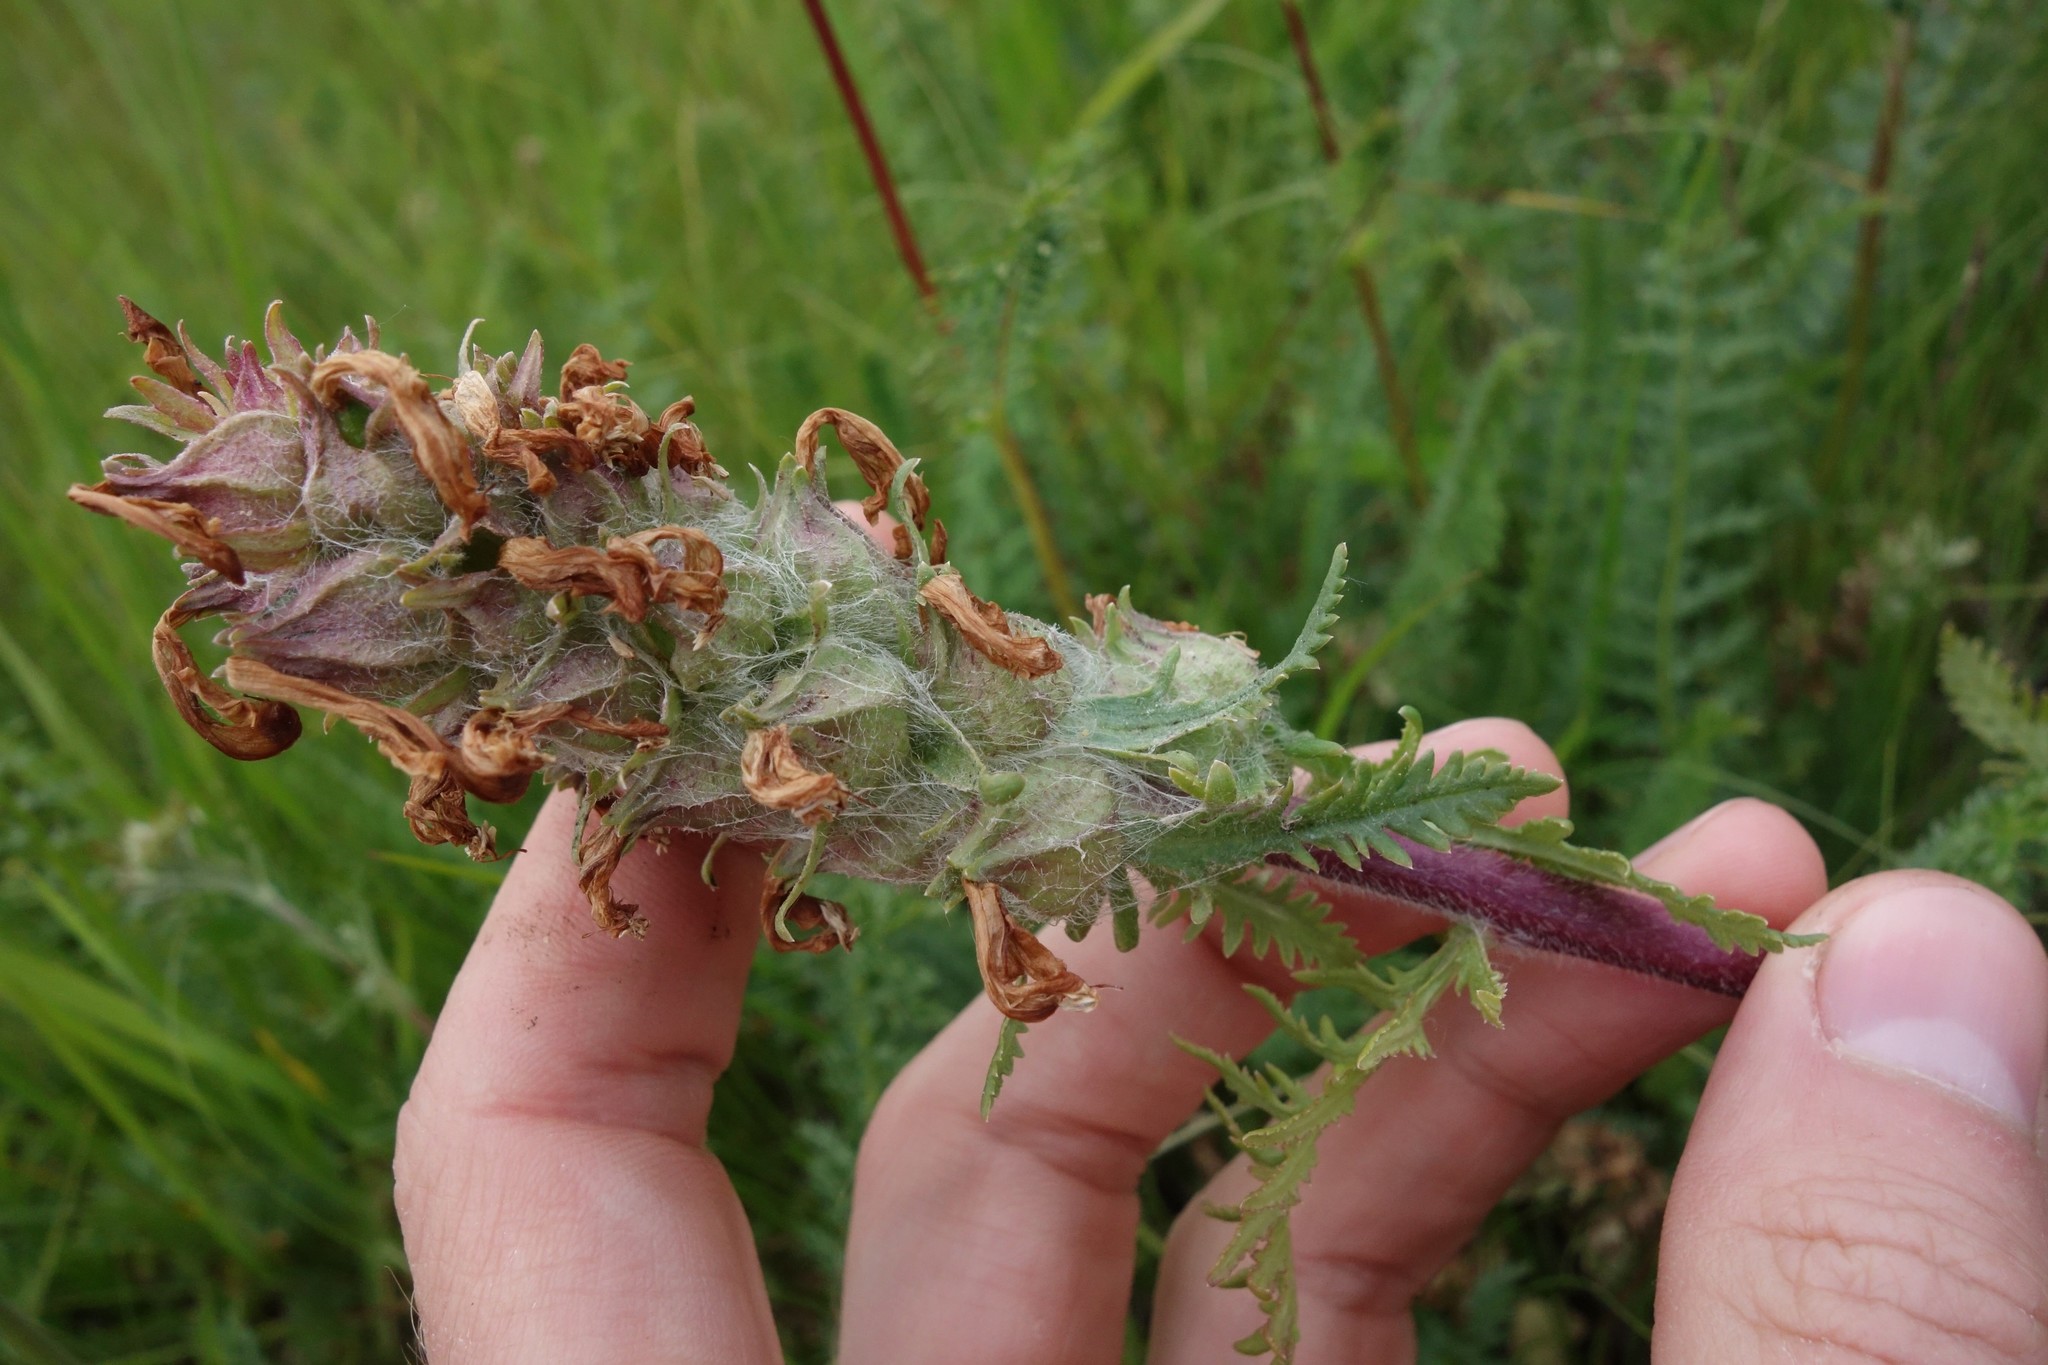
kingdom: Plantae
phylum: Tracheophyta
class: Magnoliopsida
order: Lamiales
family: Orobanchaceae
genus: Pedicularis
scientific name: Pedicularis dasystachys
